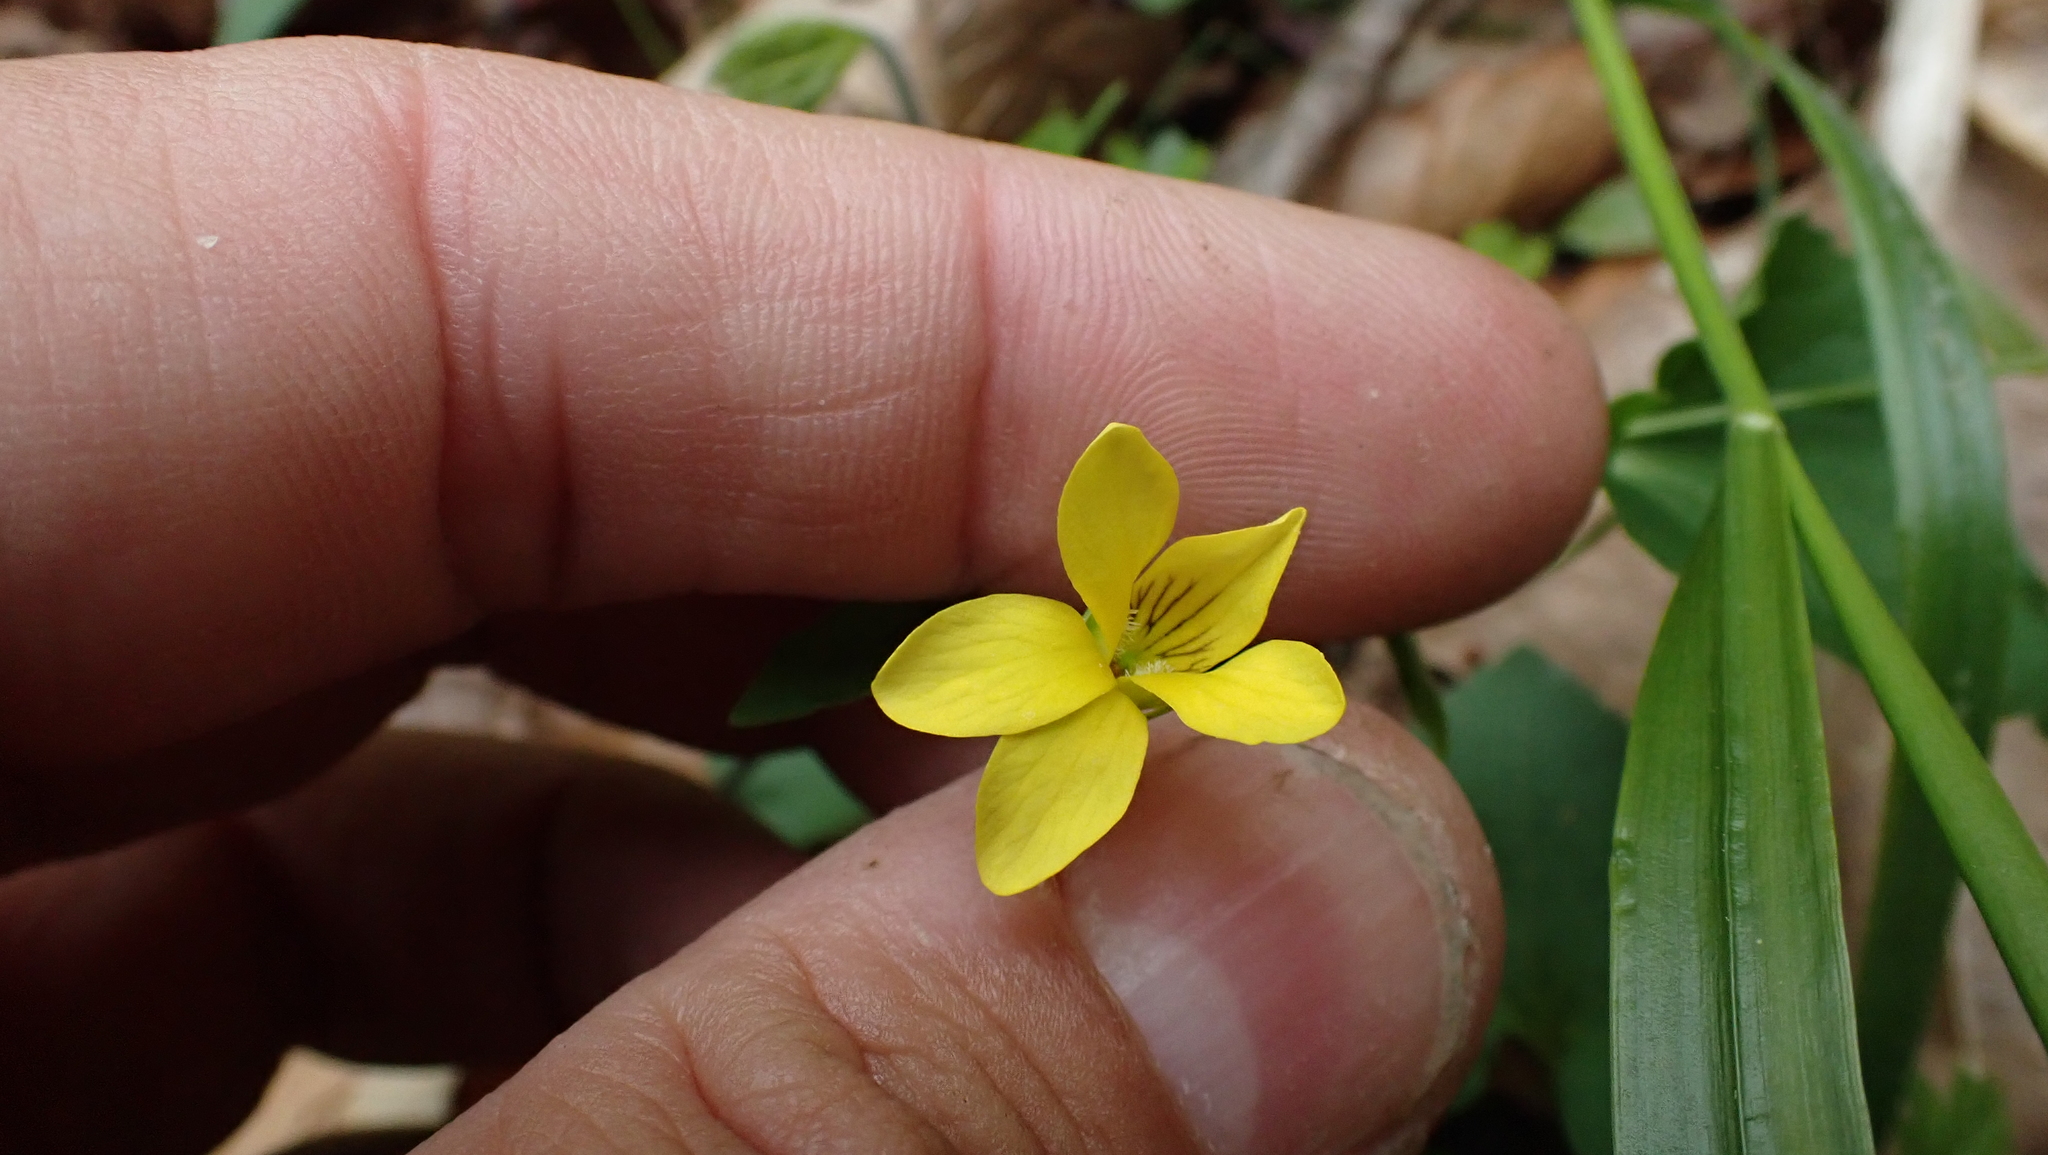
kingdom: Plantae
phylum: Tracheophyta
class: Magnoliopsida
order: Malpighiales
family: Violaceae
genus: Viola
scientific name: Viola eriocarpa
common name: Smooth yellow violet
